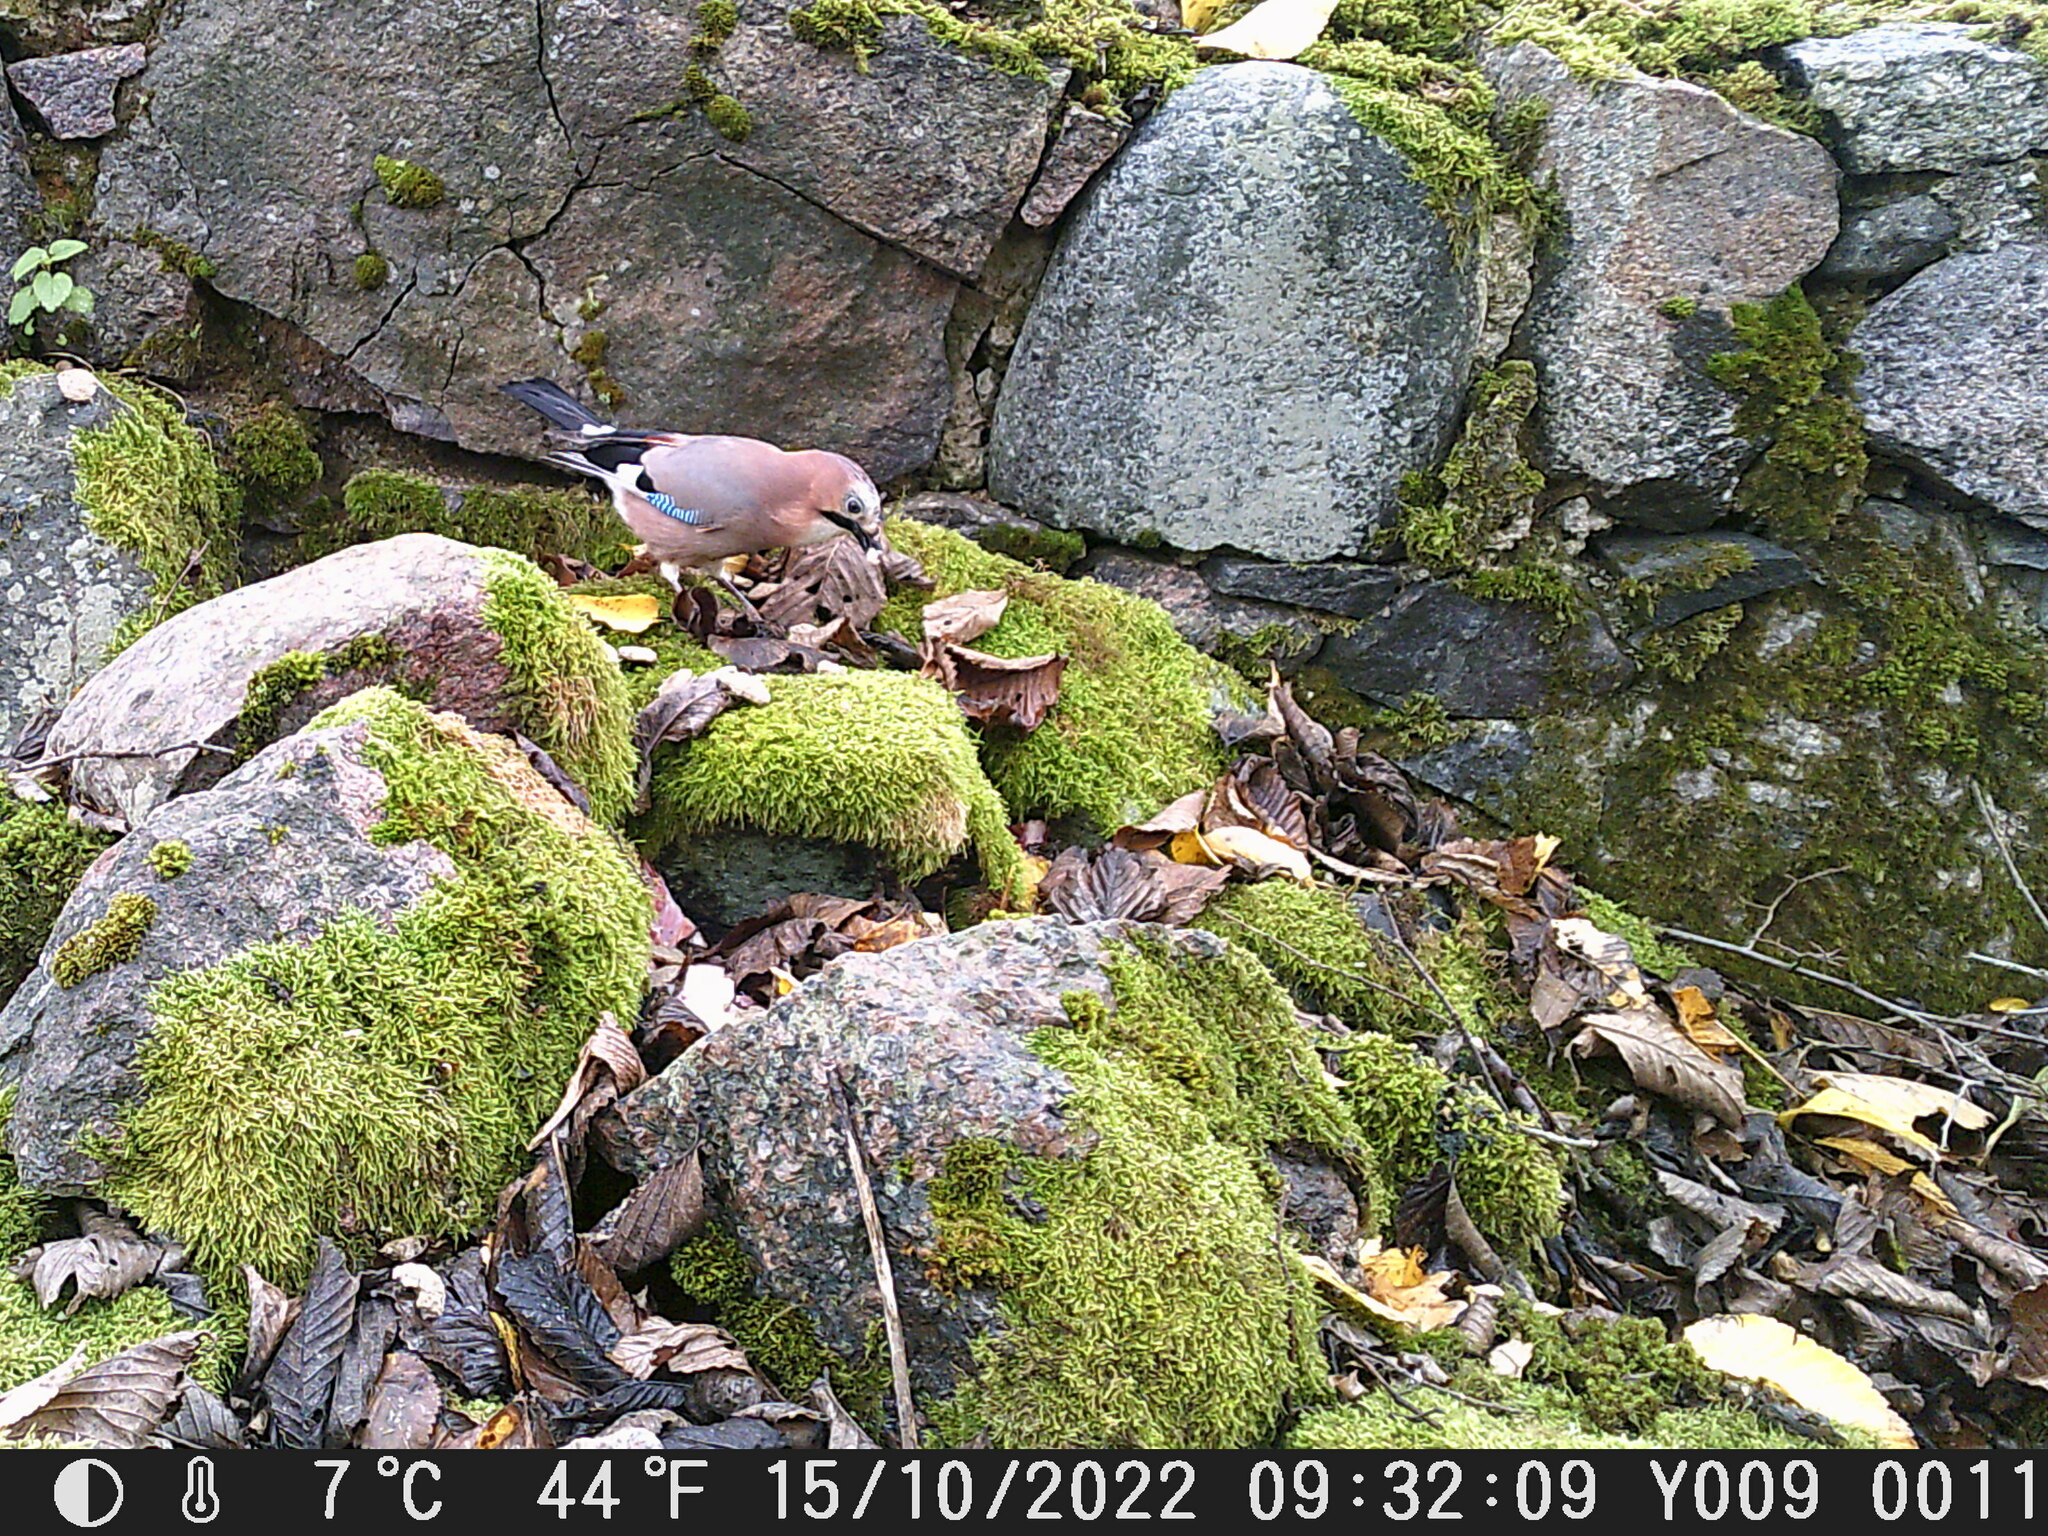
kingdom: Animalia
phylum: Chordata
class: Aves
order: Passeriformes
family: Corvidae
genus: Garrulus
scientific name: Garrulus glandarius
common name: Eurasian jay
